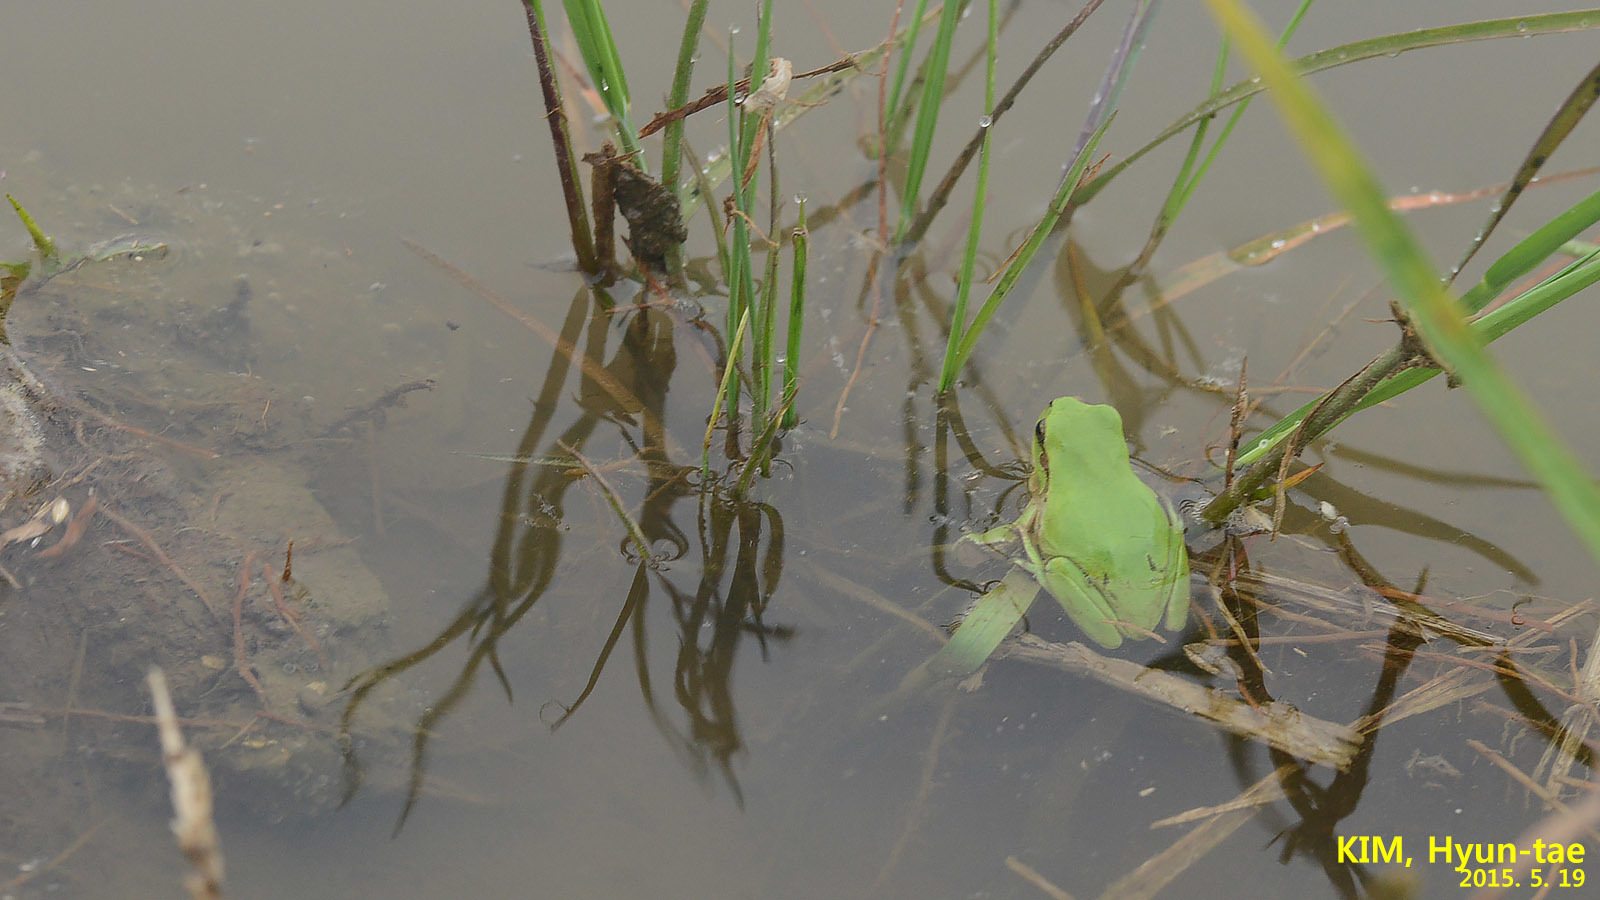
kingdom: Animalia
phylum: Chordata
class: Amphibia
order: Anura
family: Hylidae
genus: Dryophytes
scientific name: Dryophytes immaculatus
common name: North china treefrog
